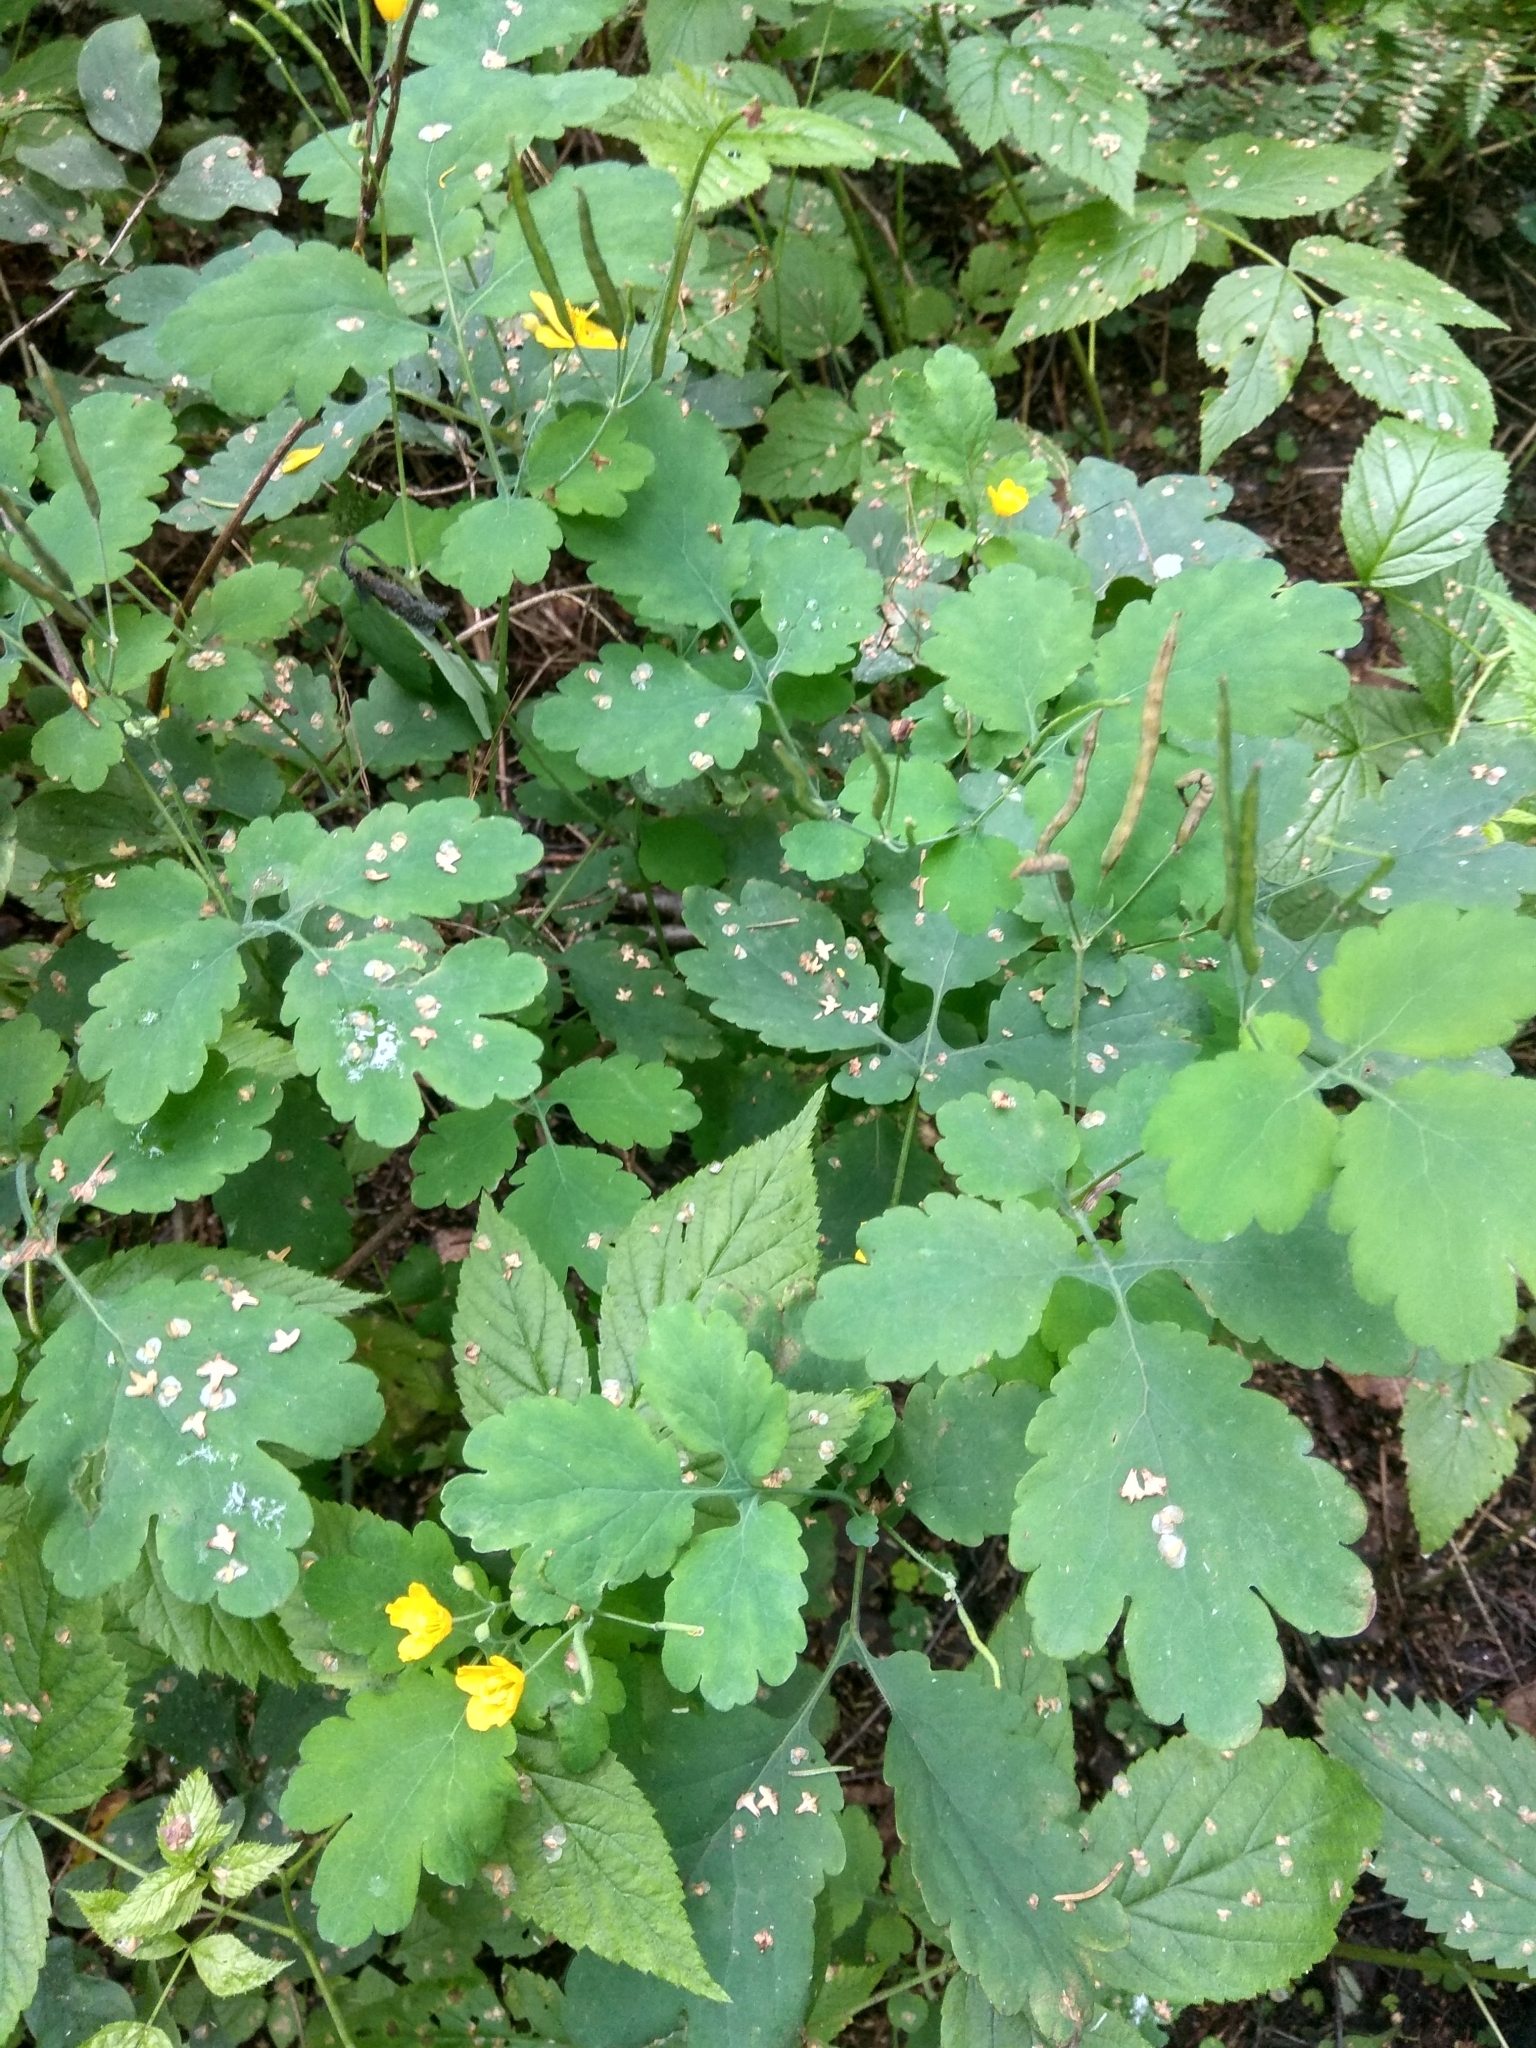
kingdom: Plantae
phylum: Tracheophyta
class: Magnoliopsida
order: Ranunculales
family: Papaveraceae
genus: Chelidonium
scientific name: Chelidonium majus
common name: Greater celandine
